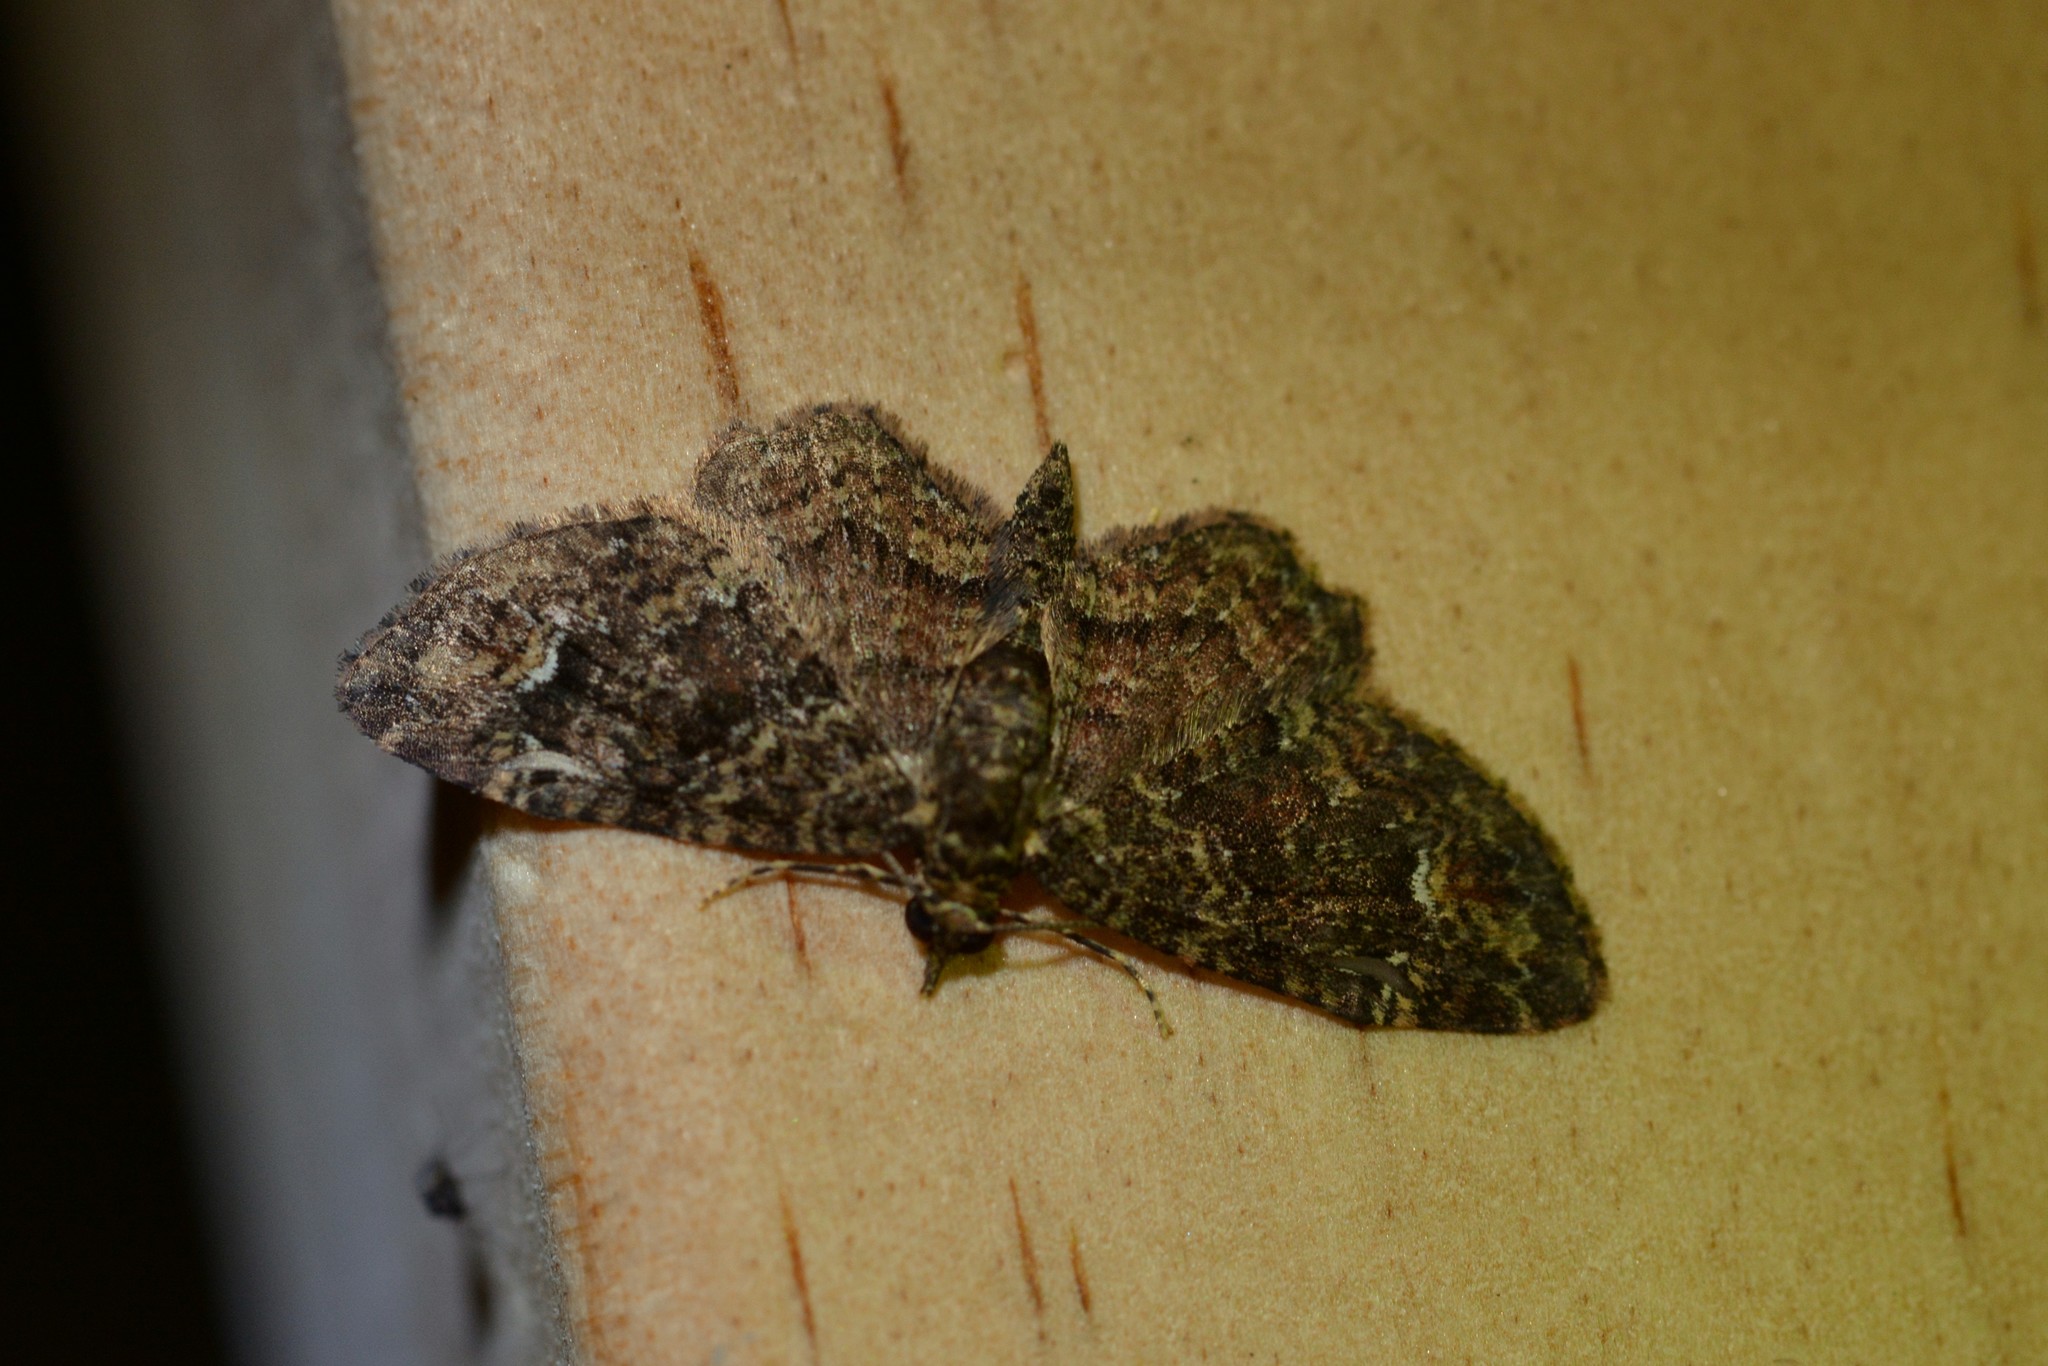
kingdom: Animalia
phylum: Arthropoda
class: Insecta
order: Lepidoptera
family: Geometridae
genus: Pasiphilodes
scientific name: Pasiphilodes testulata
